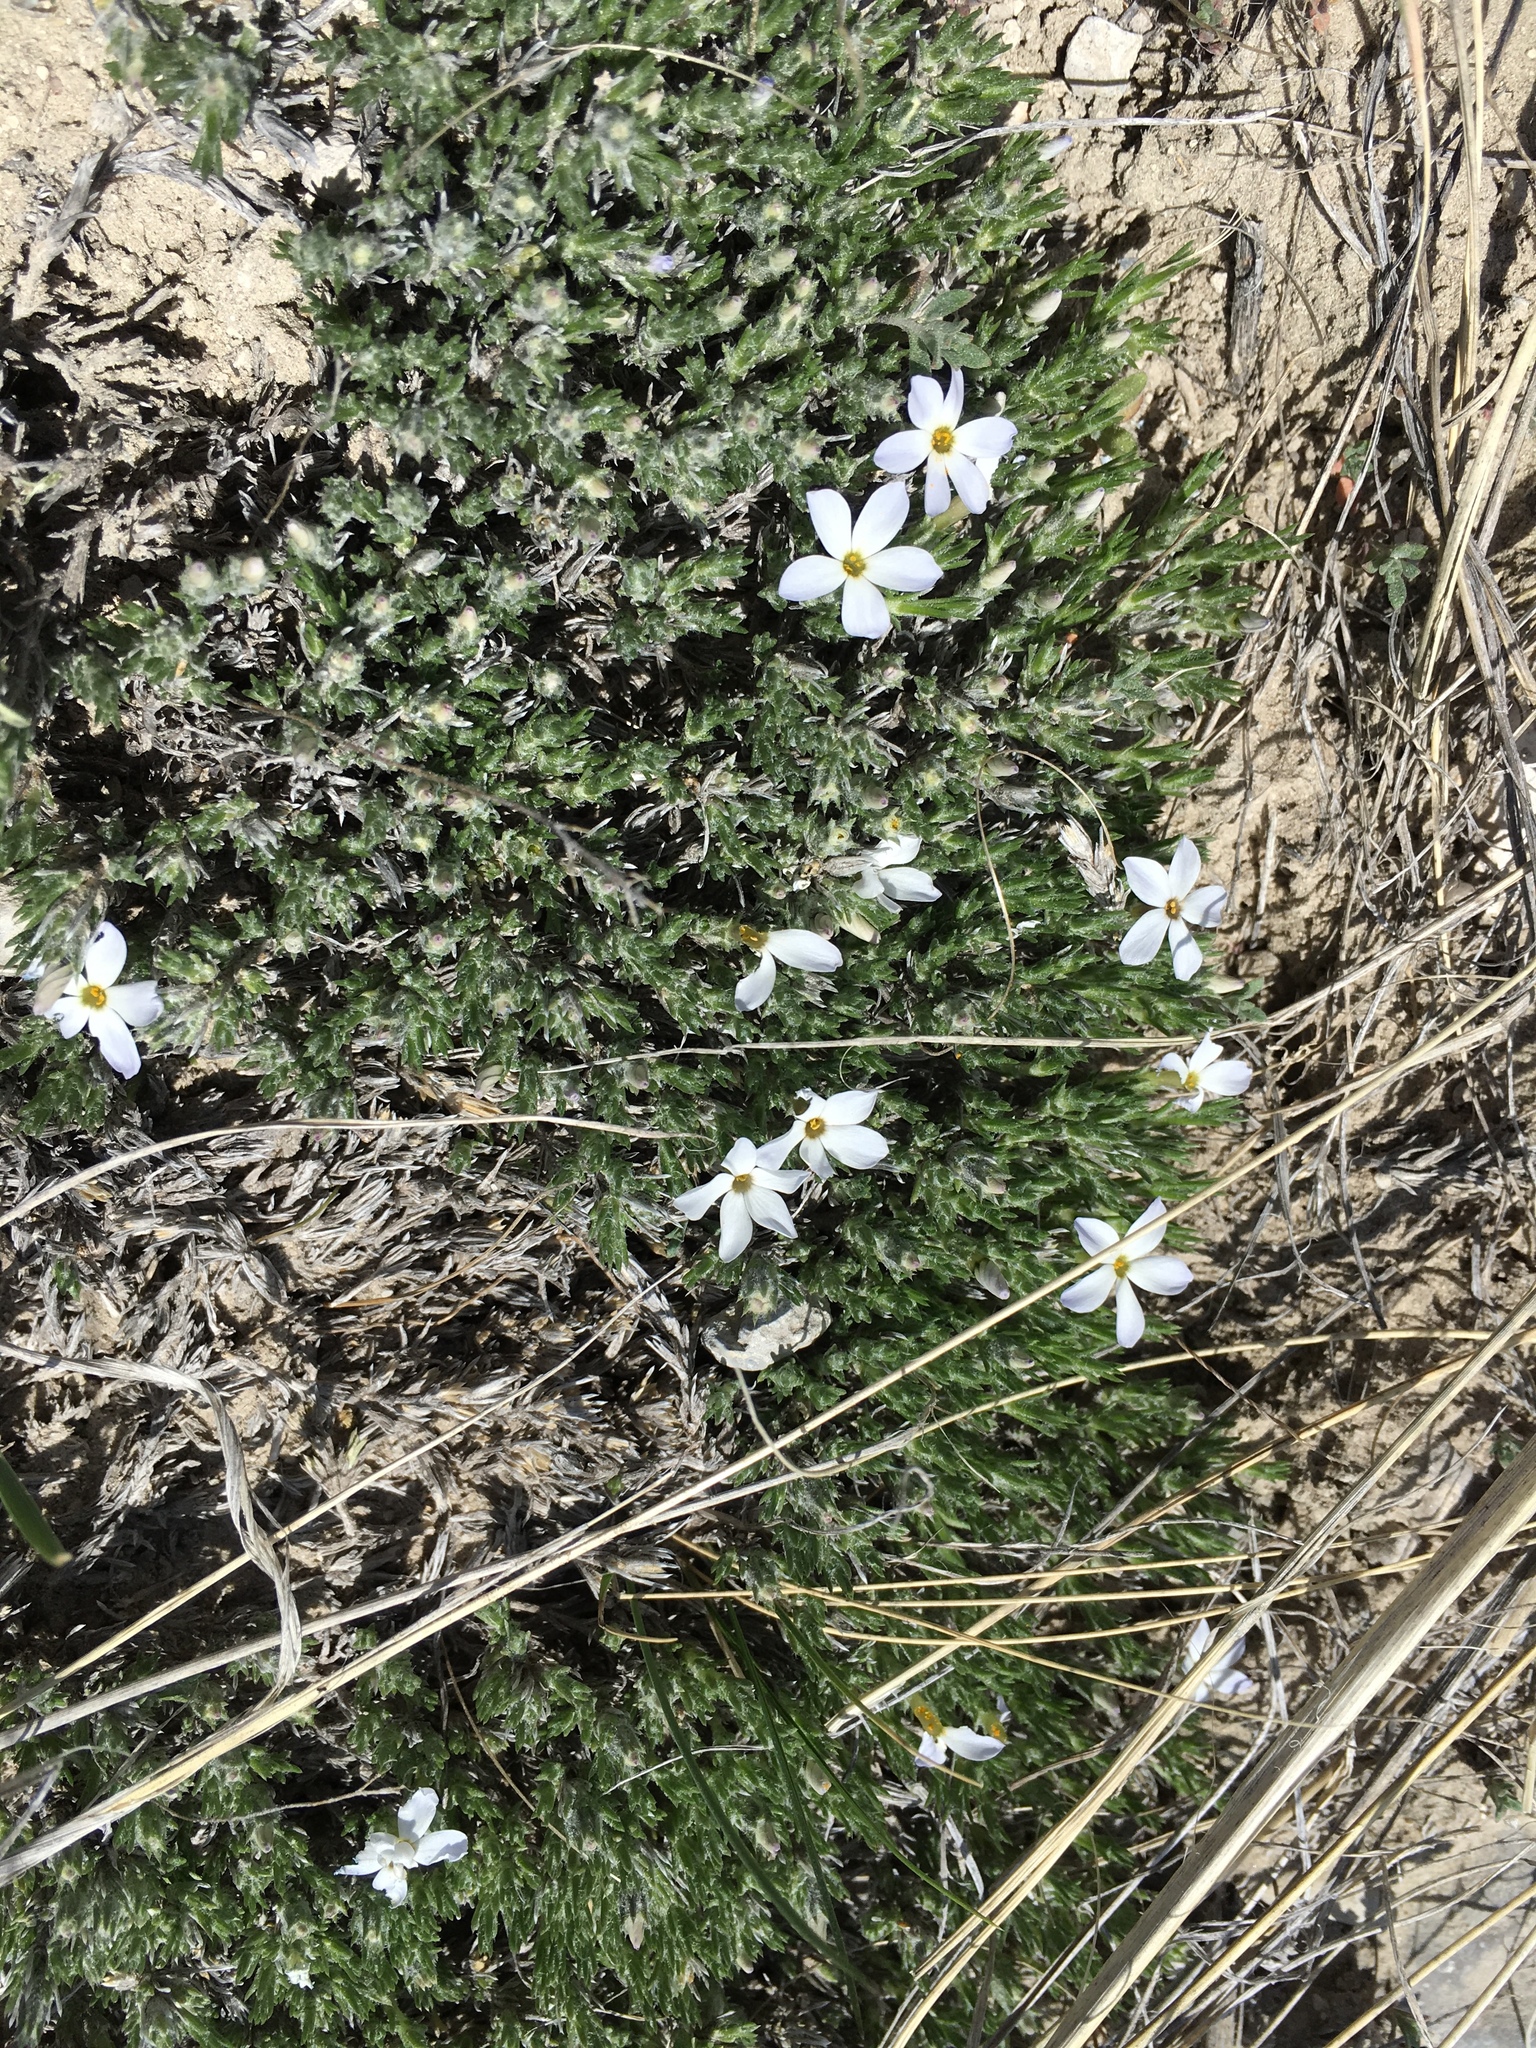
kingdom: Plantae
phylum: Tracheophyta
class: Magnoliopsida
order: Ericales
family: Polemoniaceae
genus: Phlox
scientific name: Phlox hoodii
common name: Moss phlox
